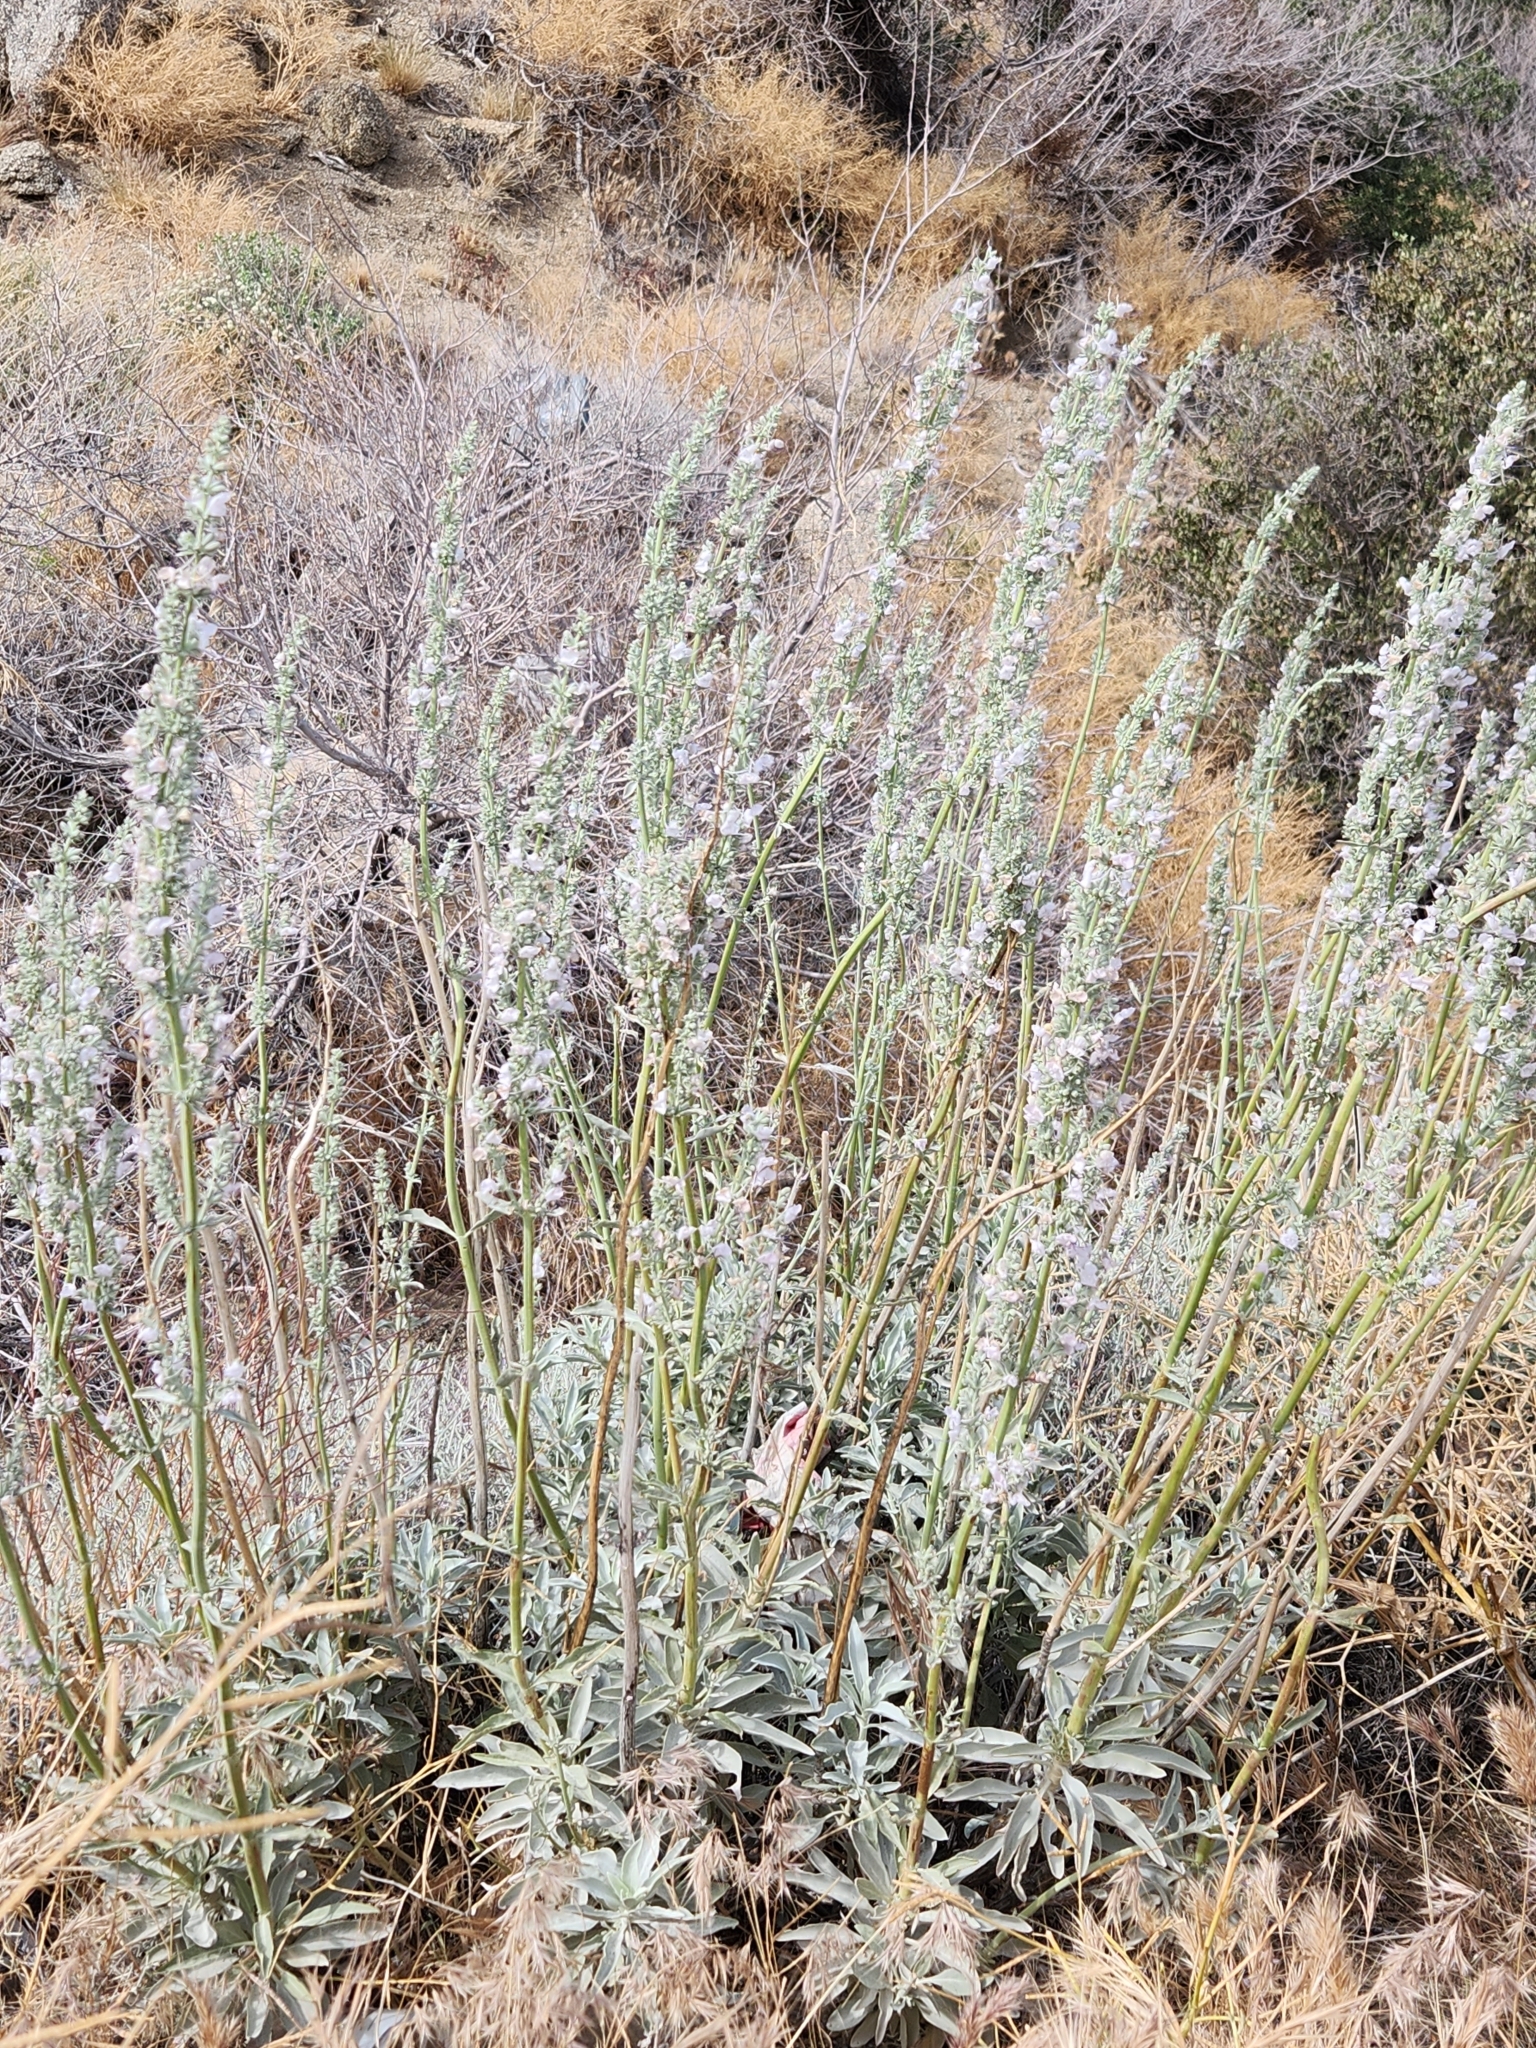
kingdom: Plantae
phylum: Tracheophyta
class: Magnoliopsida
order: Lamiales
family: Lamiaceae
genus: Salvia
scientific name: Salvia apiana
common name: White sage
